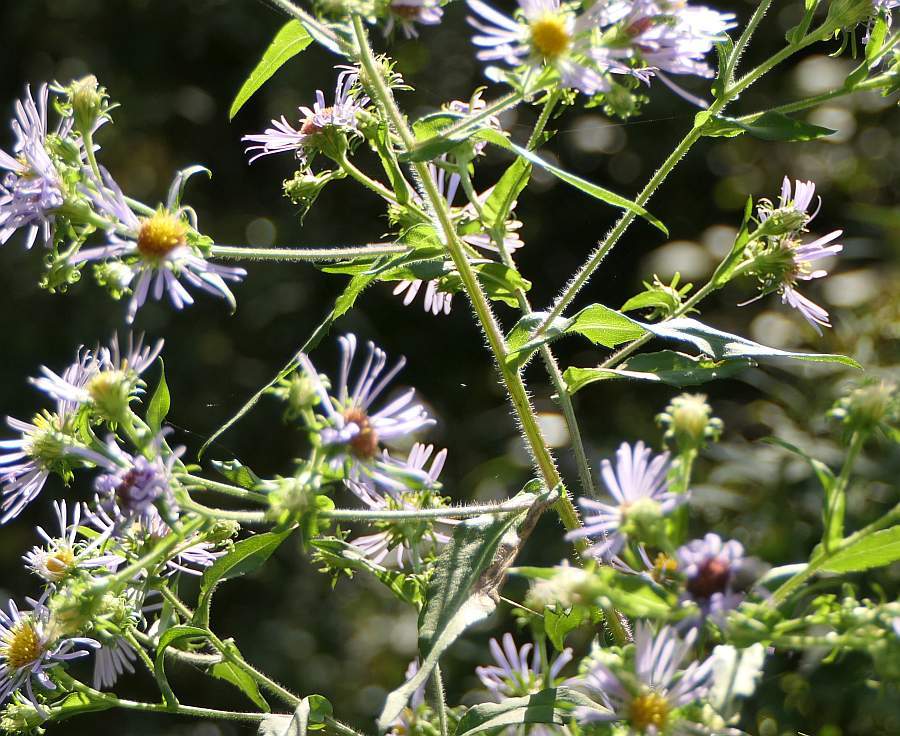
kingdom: Plantae
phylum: Tracheophyta
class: Magnoliopsida
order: Asterales
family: Asteraceae
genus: Symphyotrichum
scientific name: Symphyotrichum puniceum
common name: Bog aster
